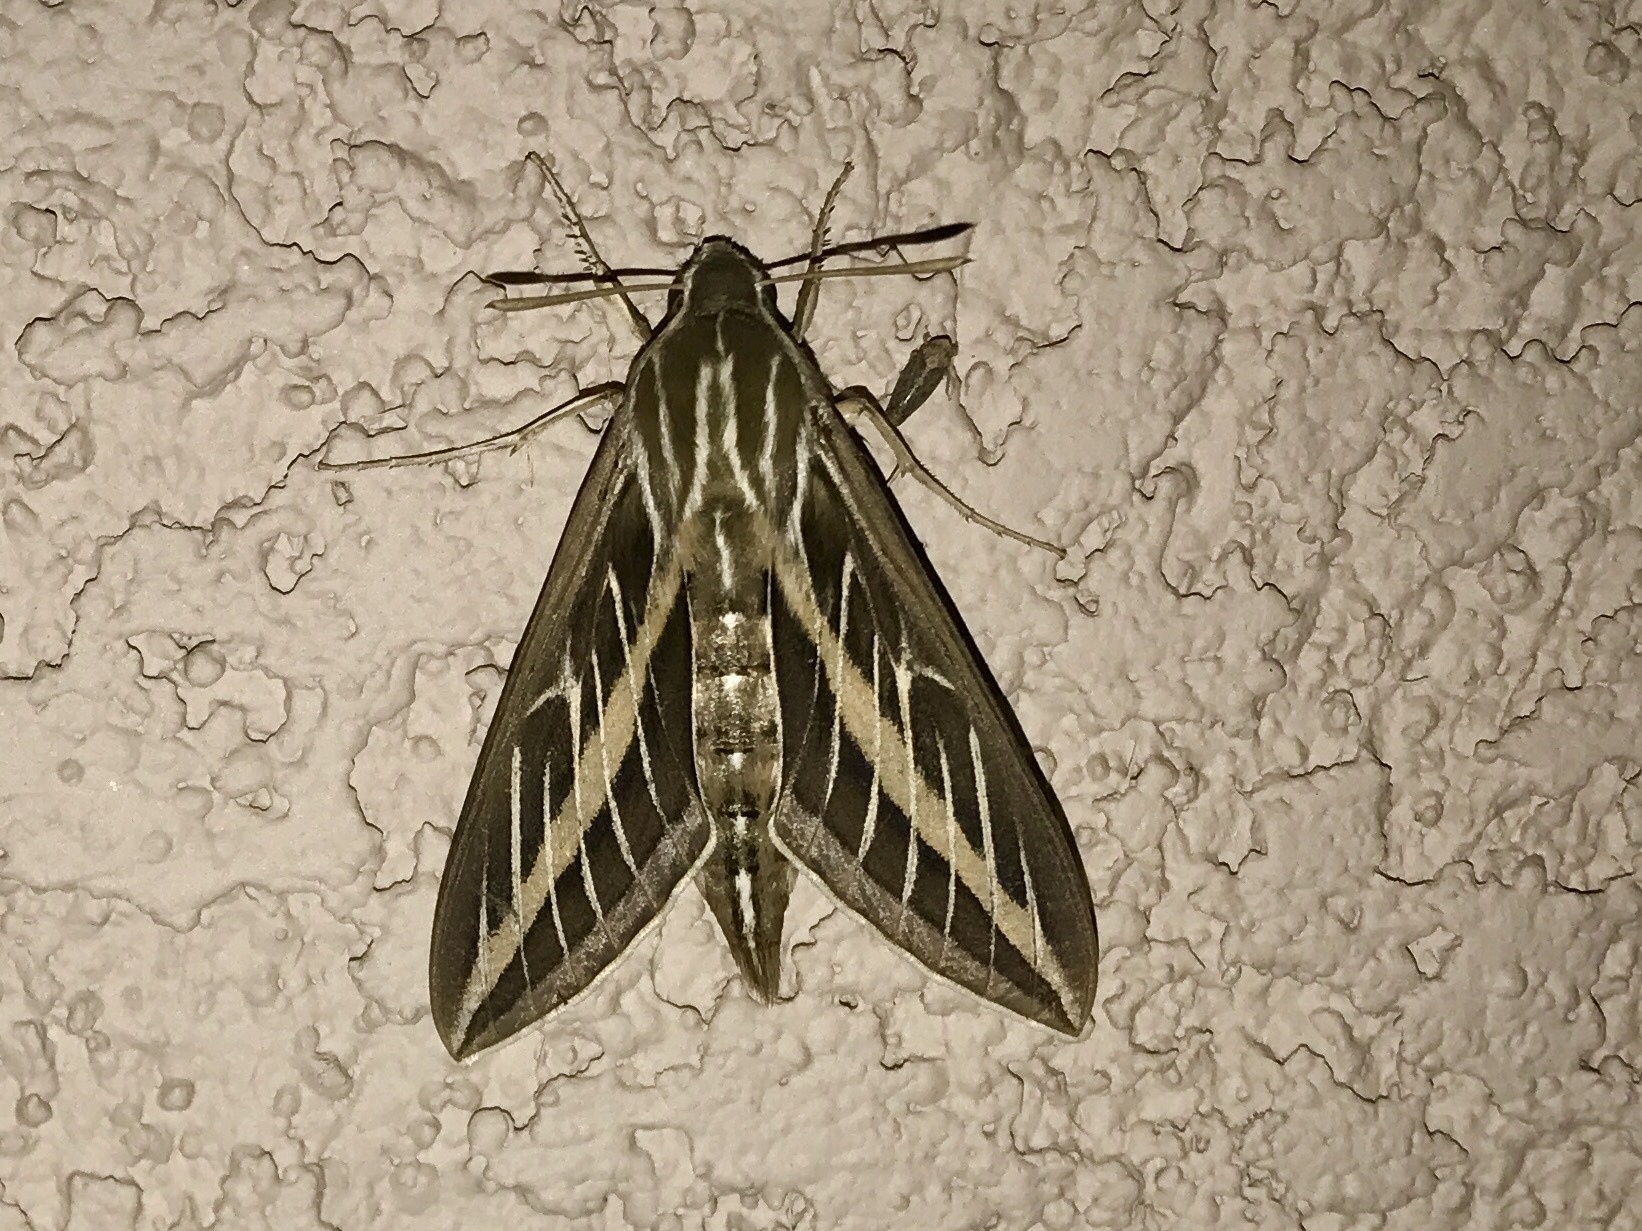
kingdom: Animalia
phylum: Arthropoda
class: Insecta
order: Lepidoptera
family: Sphingidae
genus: Hyles
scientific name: Hyles lineata
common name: White-lined sphinx
